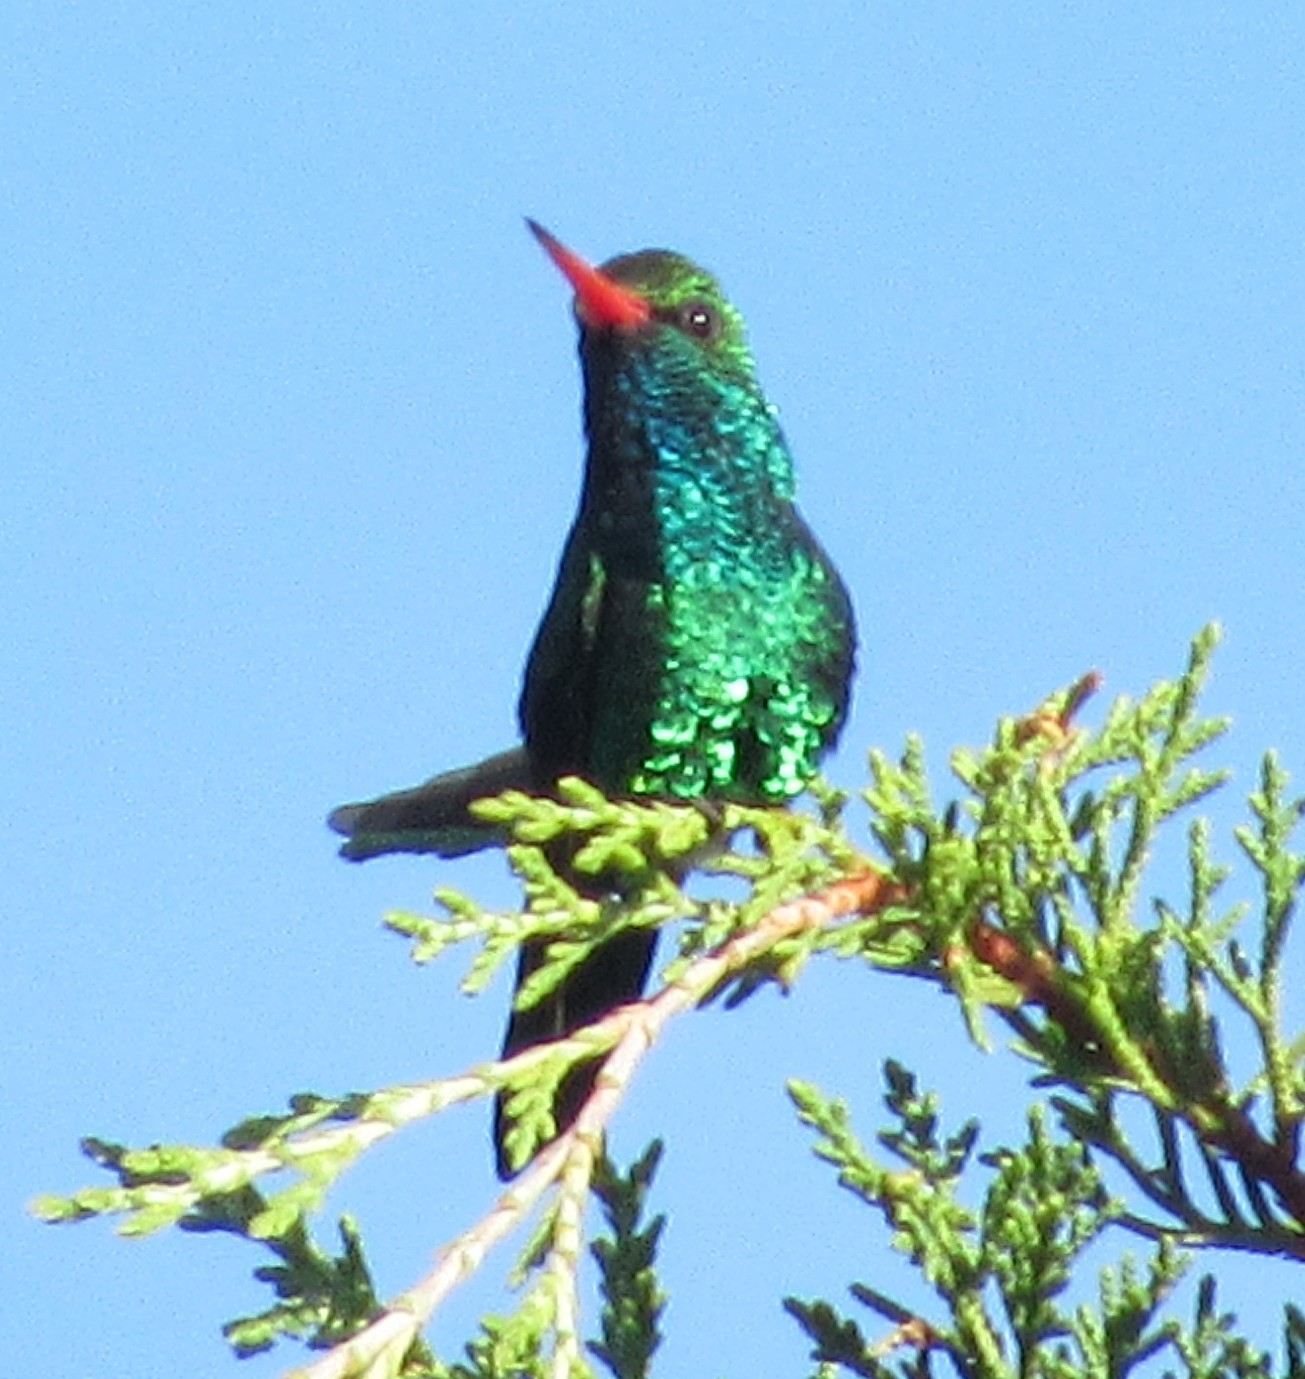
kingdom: Animalia
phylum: Chordata
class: Aves
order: Apodiformes
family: Trochilidae
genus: Chlorostilbon
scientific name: Chlorostilbon lucidus
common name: Glittering-bellied emerald
